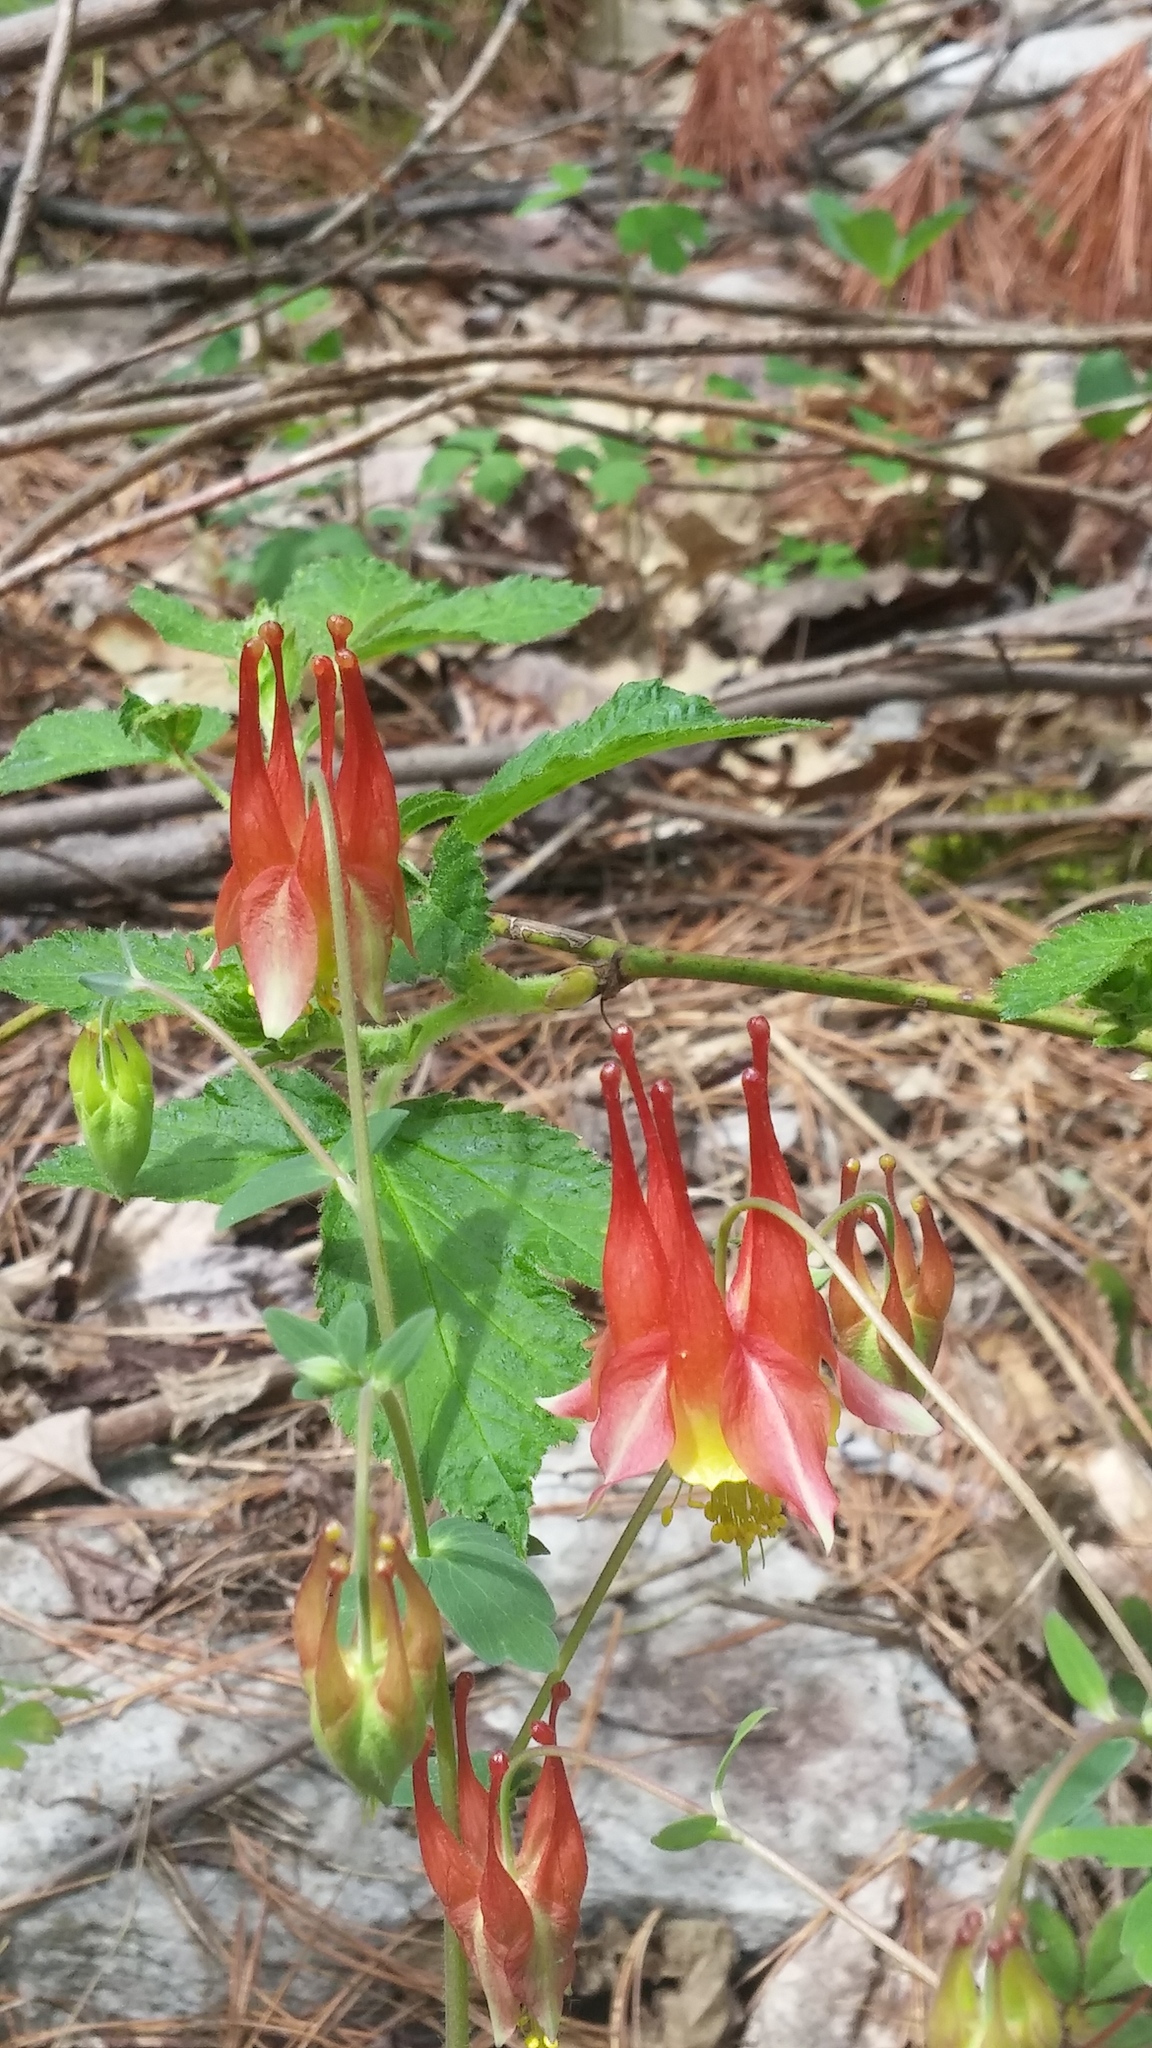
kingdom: Plantae
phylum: Tracheophyta
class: Magnoliopsida
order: Ranunculales
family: Ranunculaceae
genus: Aquilegia
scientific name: Aquilegia canadensis
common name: American columbine
